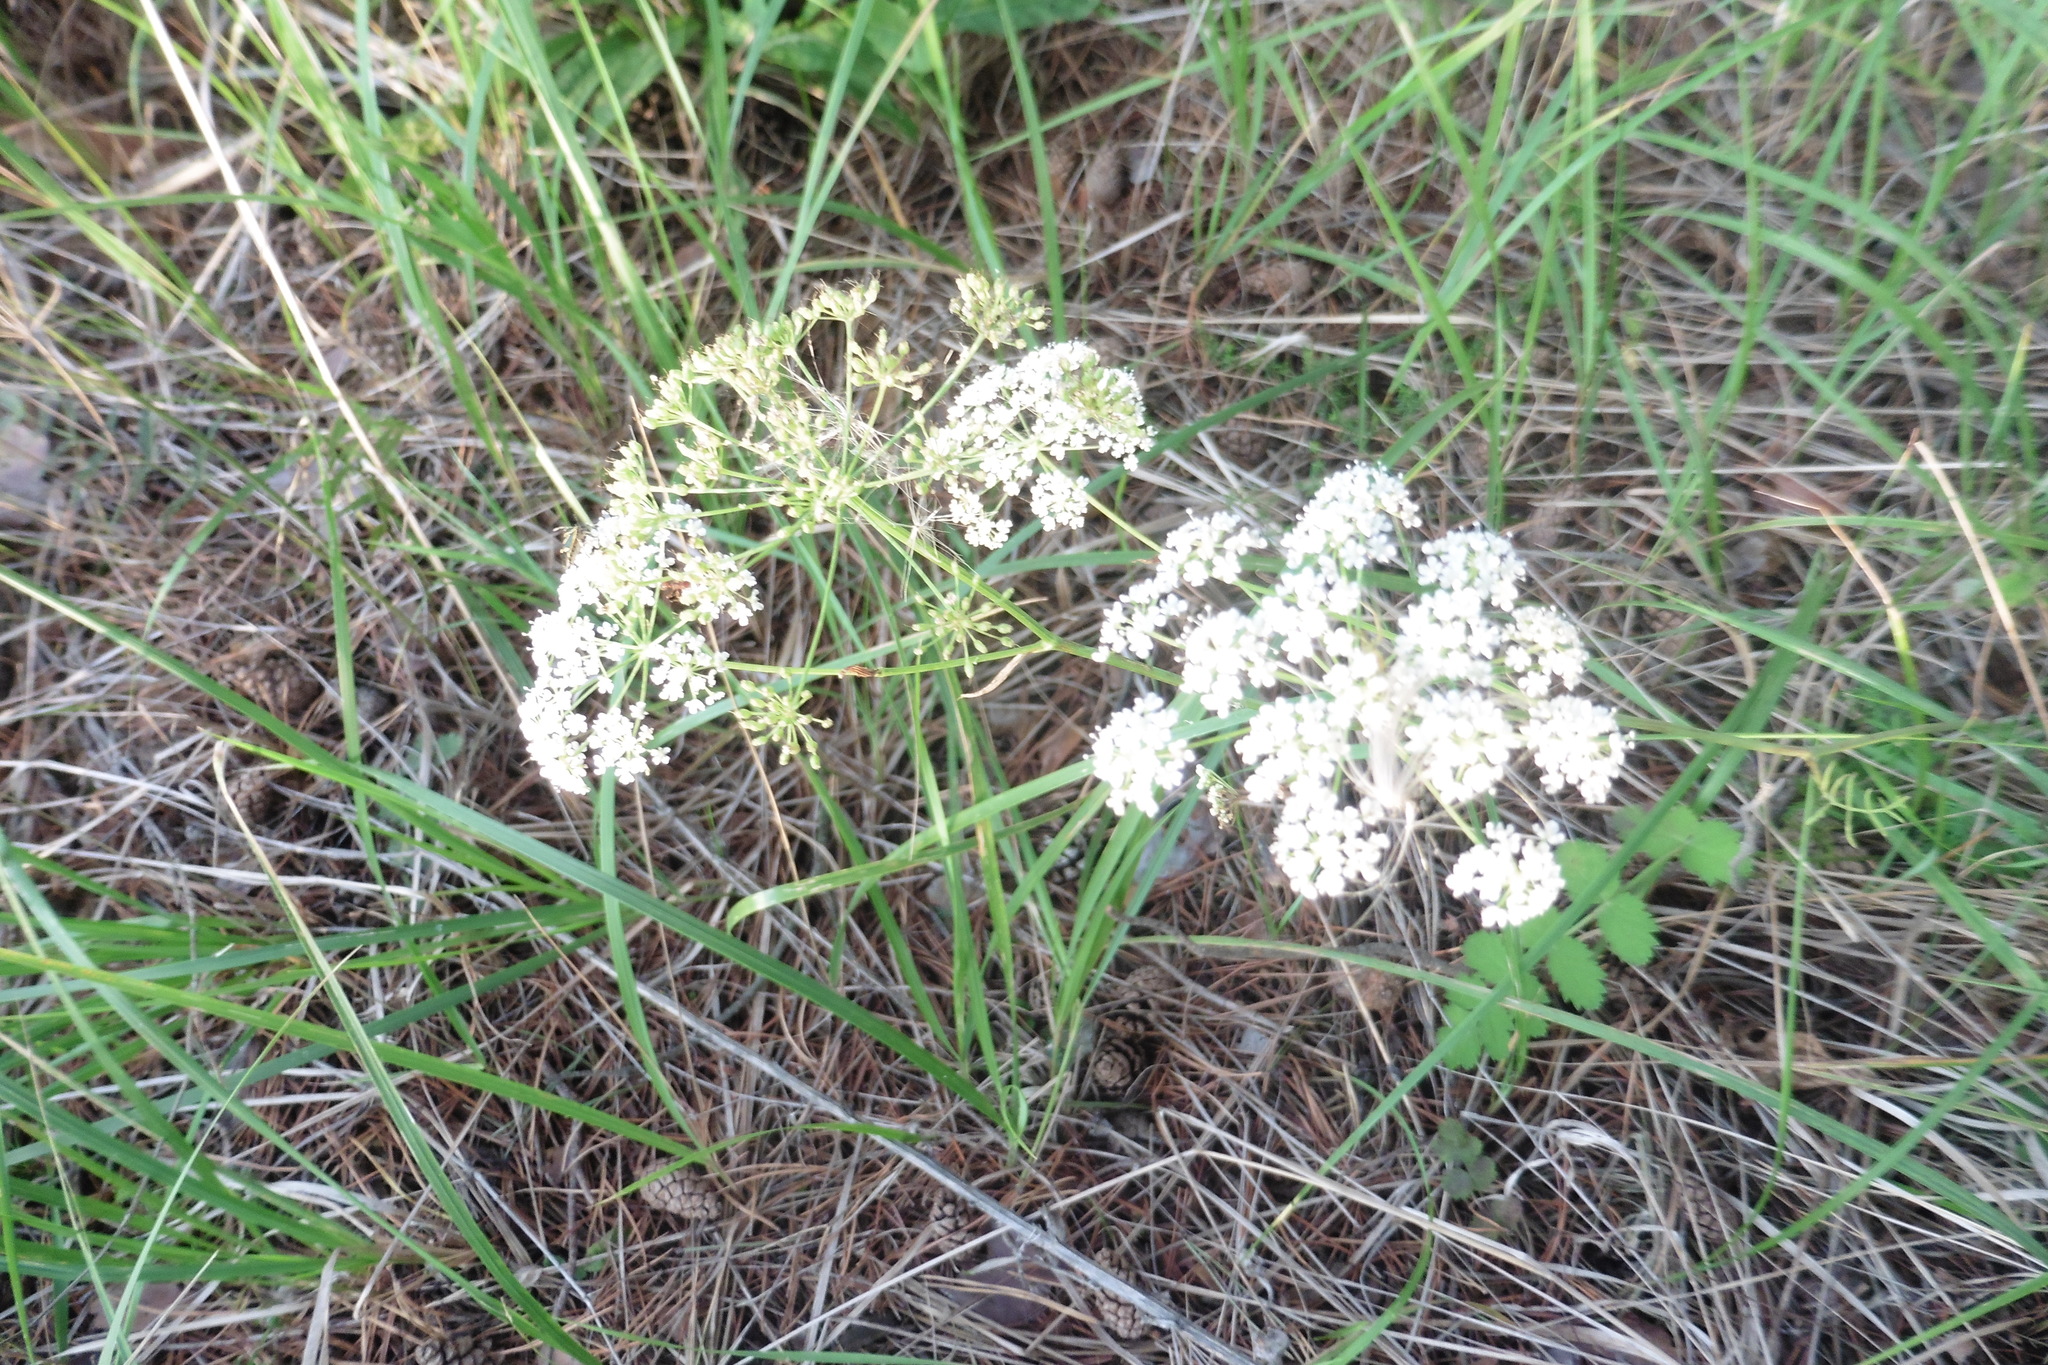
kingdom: Plantae
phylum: Tracheophyta
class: Magnoliopsida
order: Apiales
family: Apiaceae
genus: Pimpinella
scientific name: Pimpinella saxifraga
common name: Burnet-saxifrage
